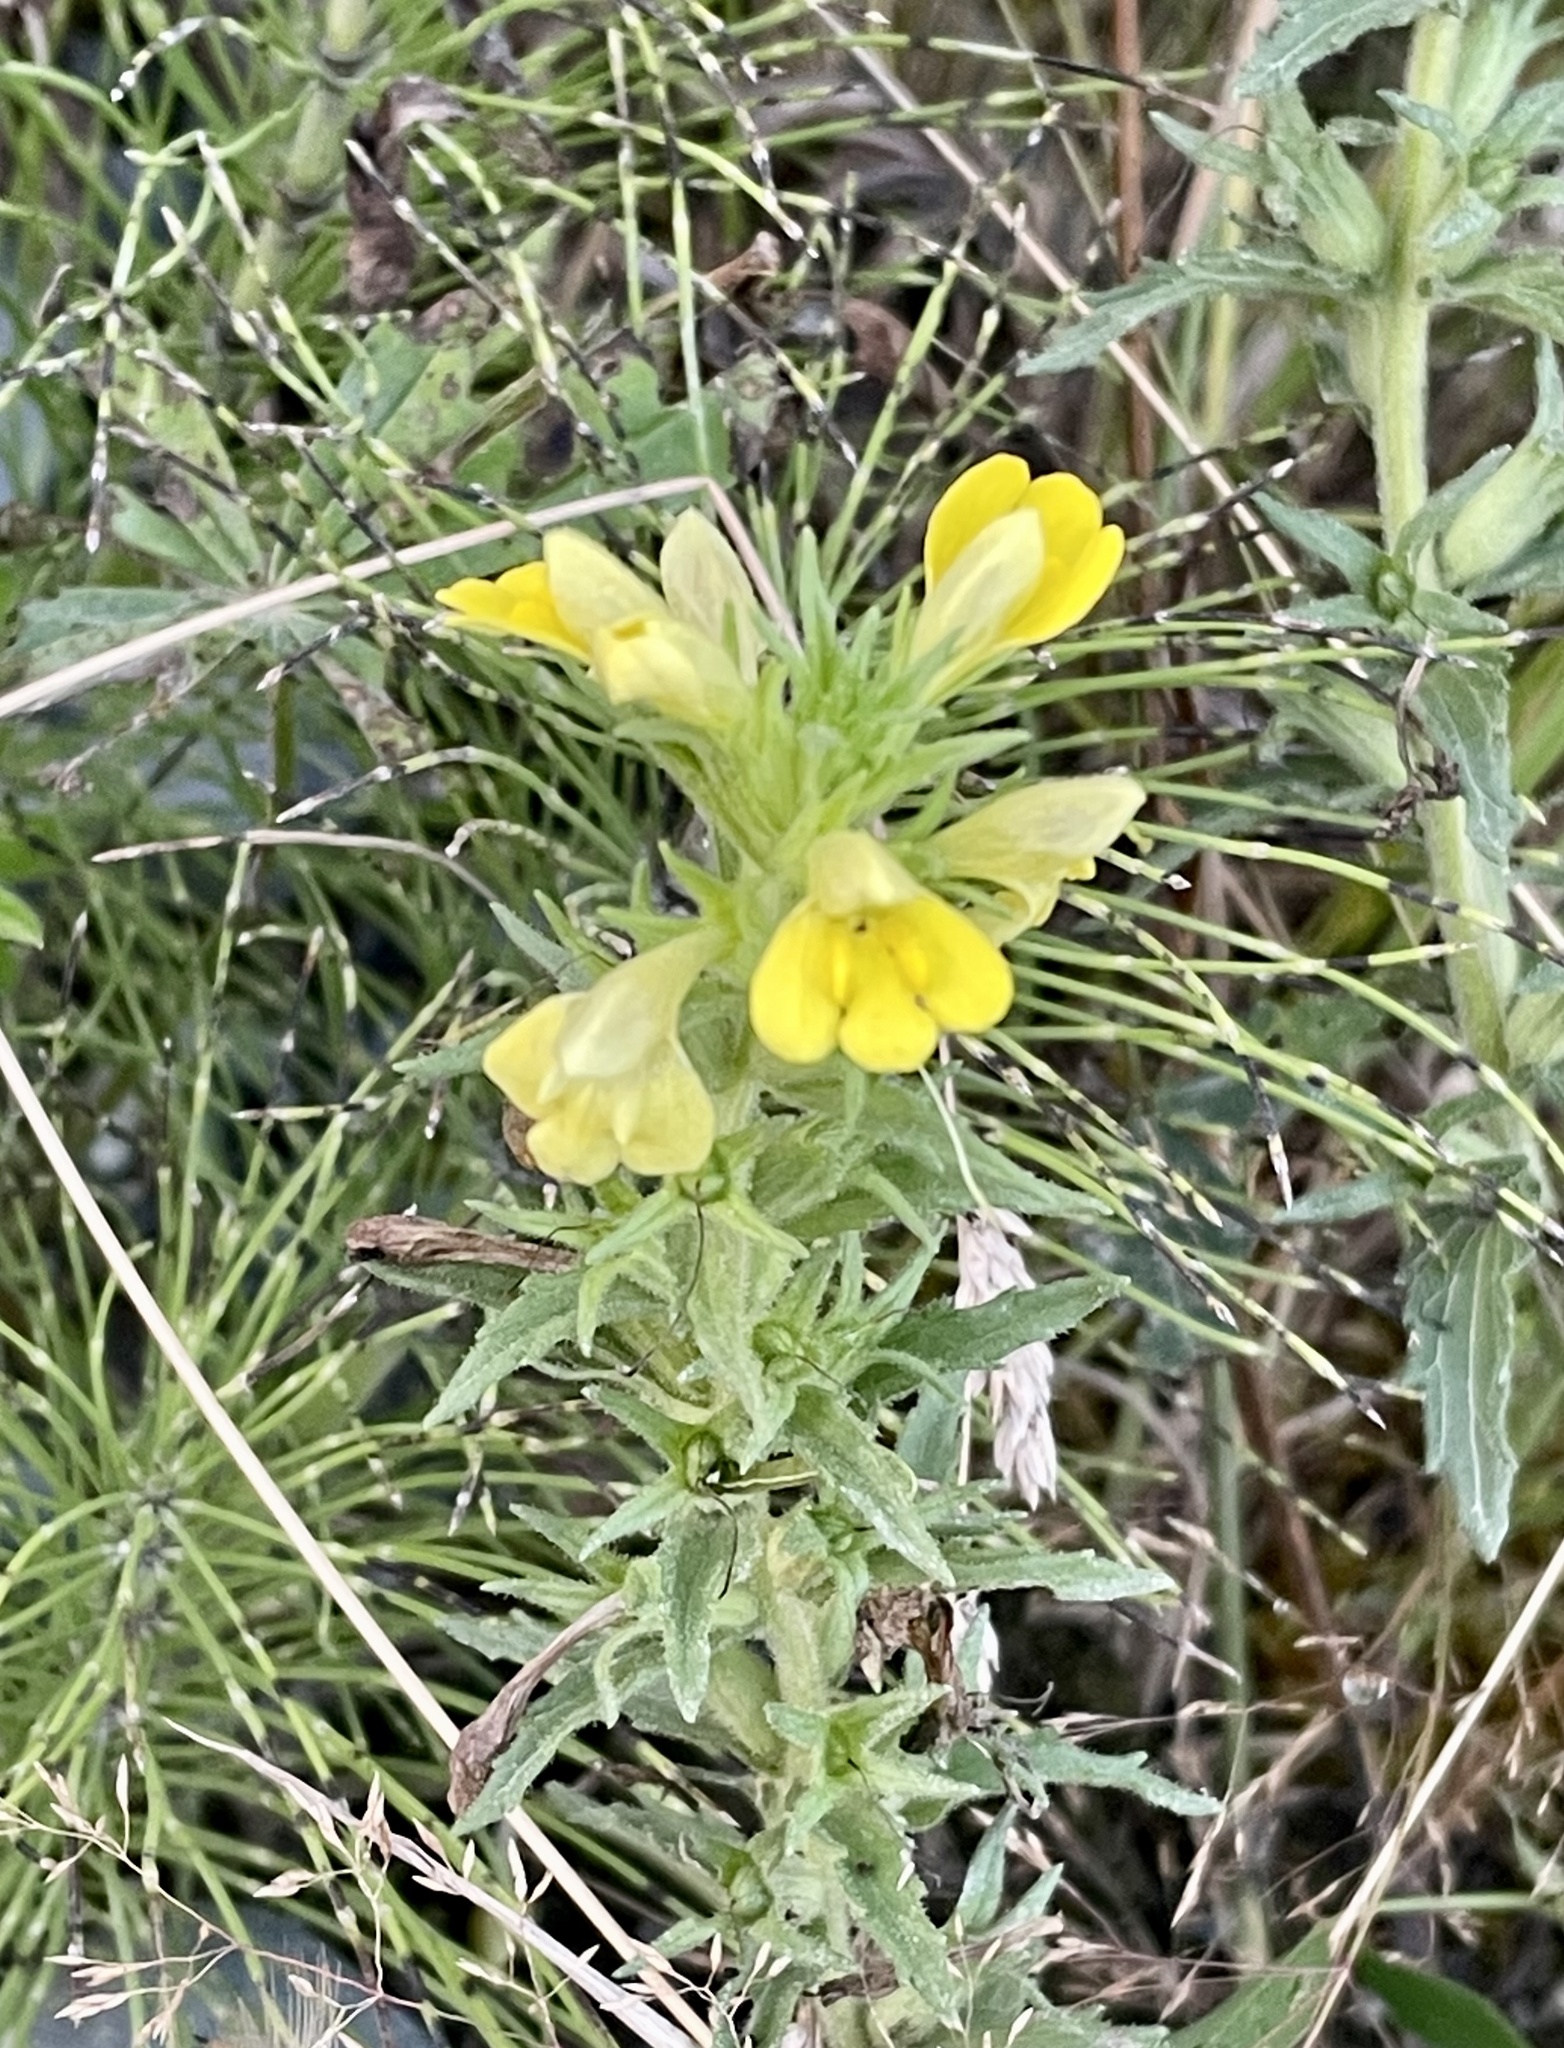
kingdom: Plantae
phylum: Tracheophyta
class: Magnoliopsida
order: Lamiales
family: Orobanchaceae
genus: Bellardia
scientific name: Bellardia viscosa
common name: Sticky parentucellia
